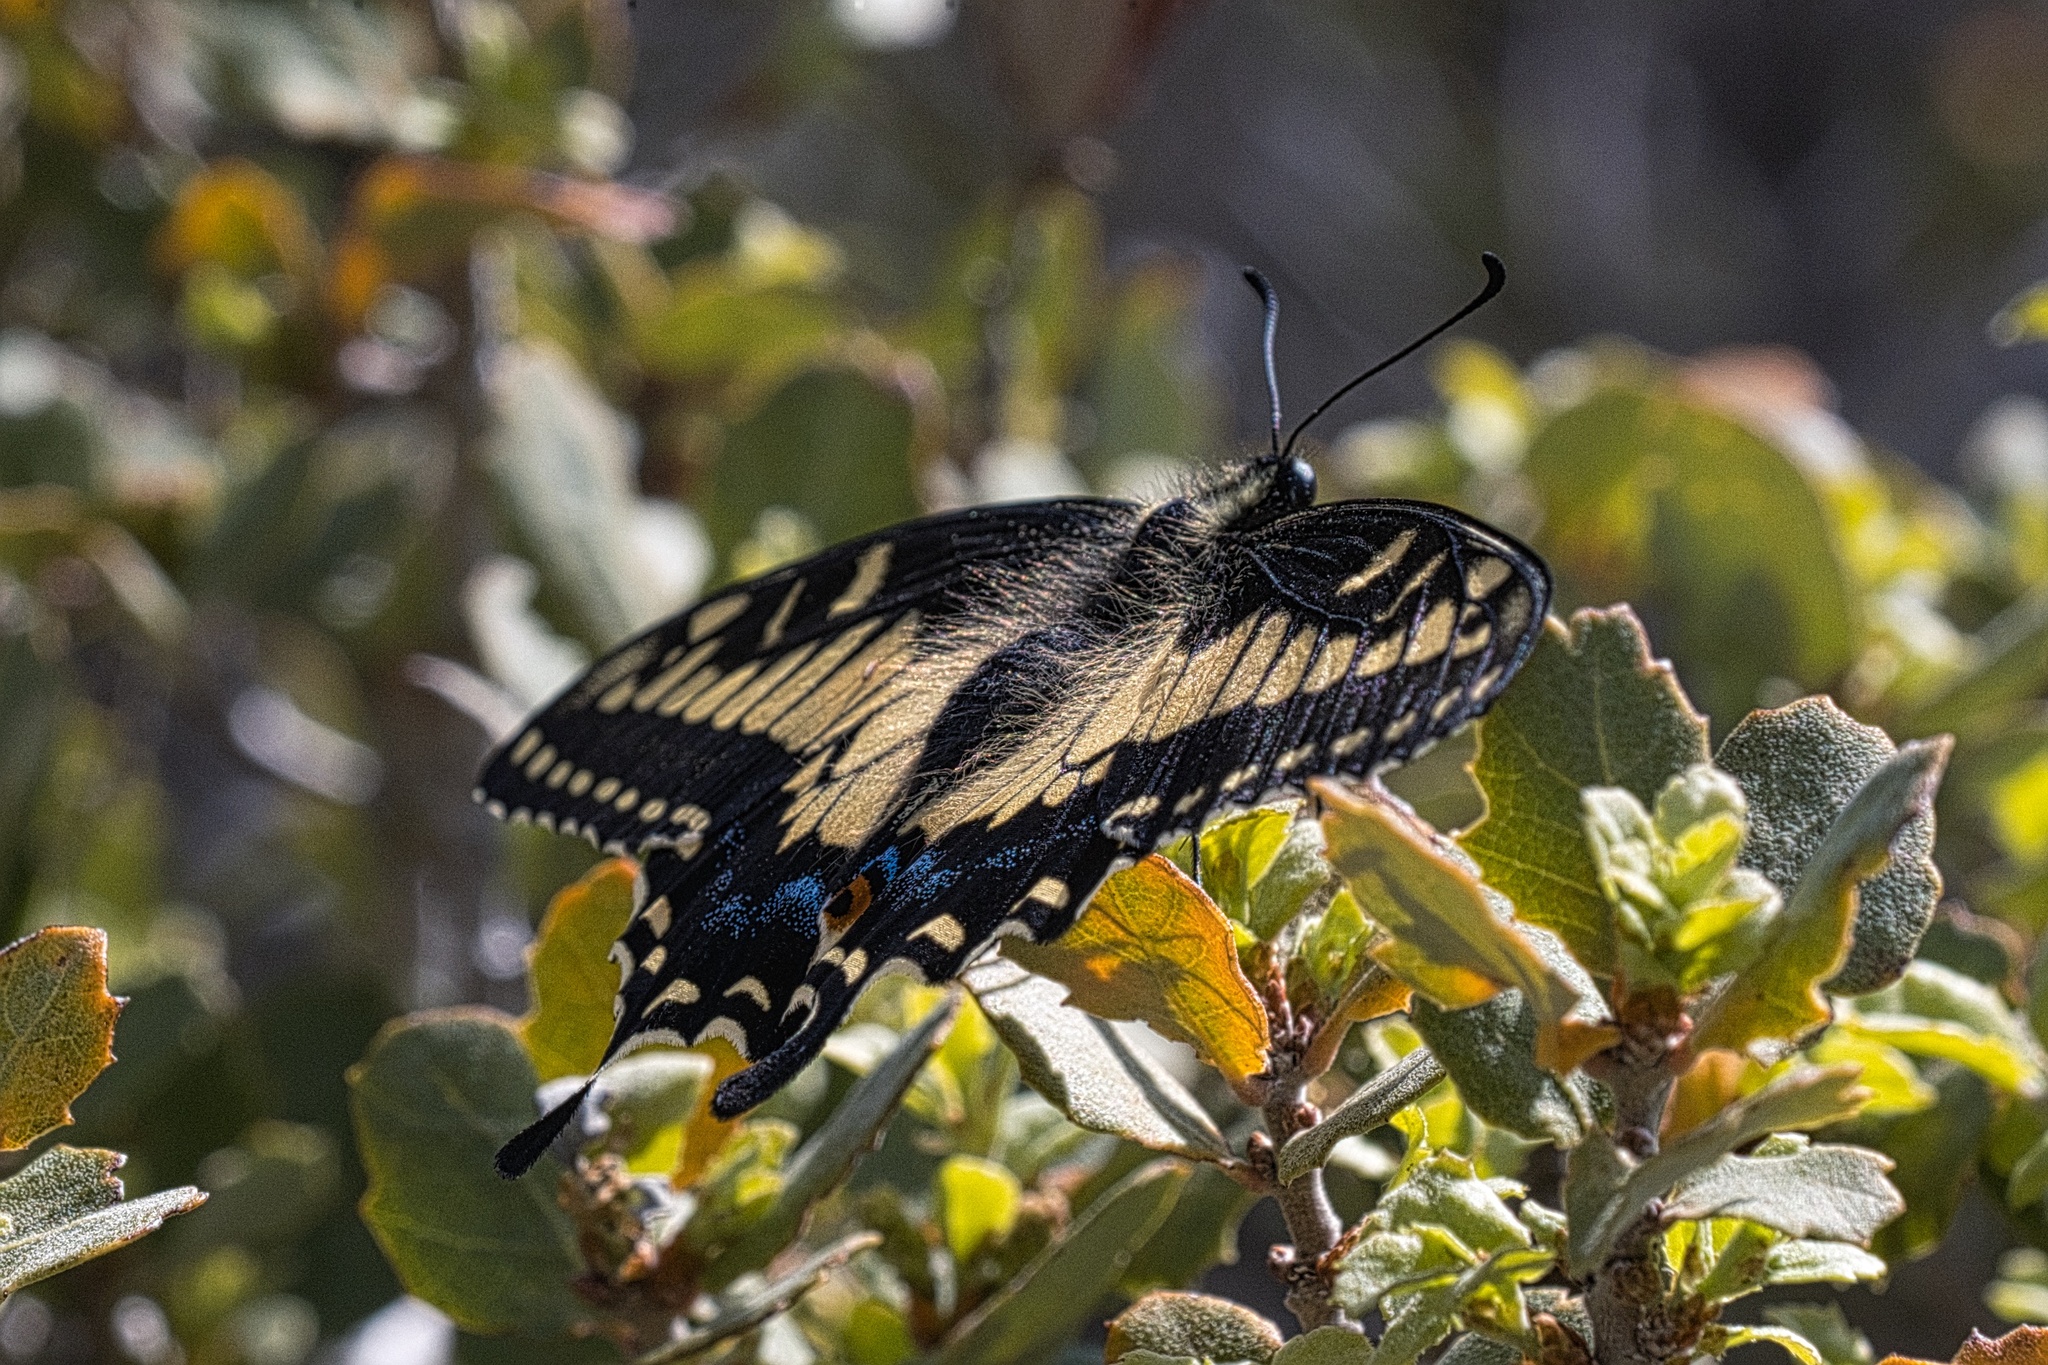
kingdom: Animalia
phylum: Arthropoda
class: Insecta
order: Lepidoptera
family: Papilionidae
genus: Papilio
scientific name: Papilio polyxenes
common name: Black swallowtail
